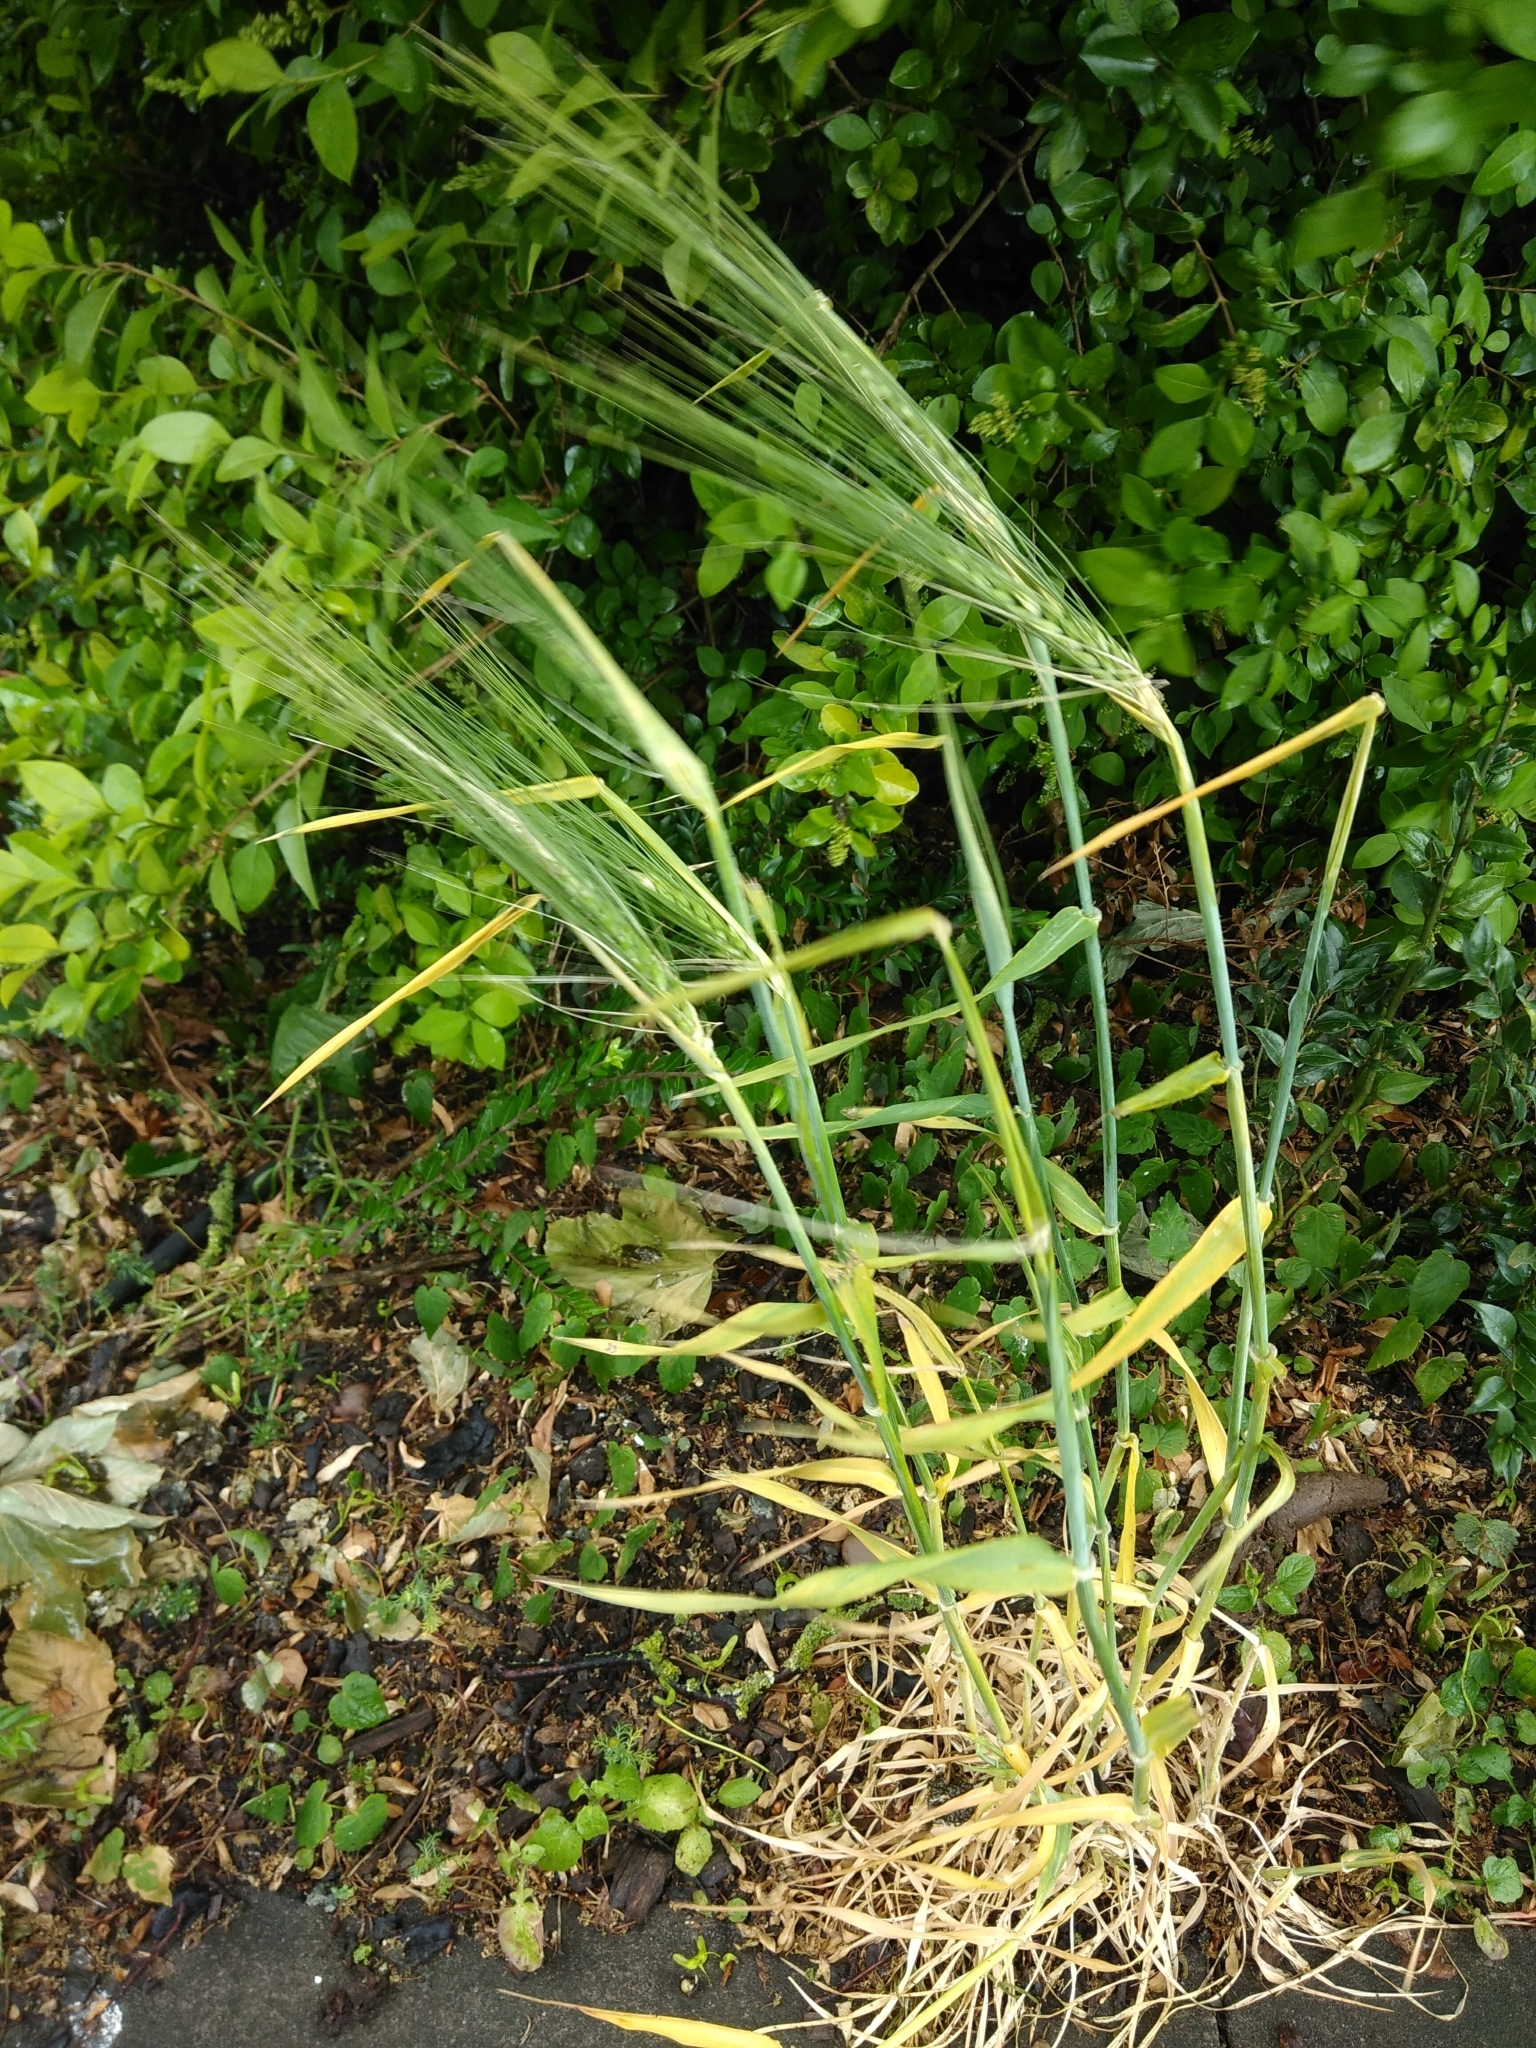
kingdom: Plantae
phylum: Tracheophyta
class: Liliopsida
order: Poales
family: Poaceae
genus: Hordeum
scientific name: Hordeum vulgare
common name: Common barley
